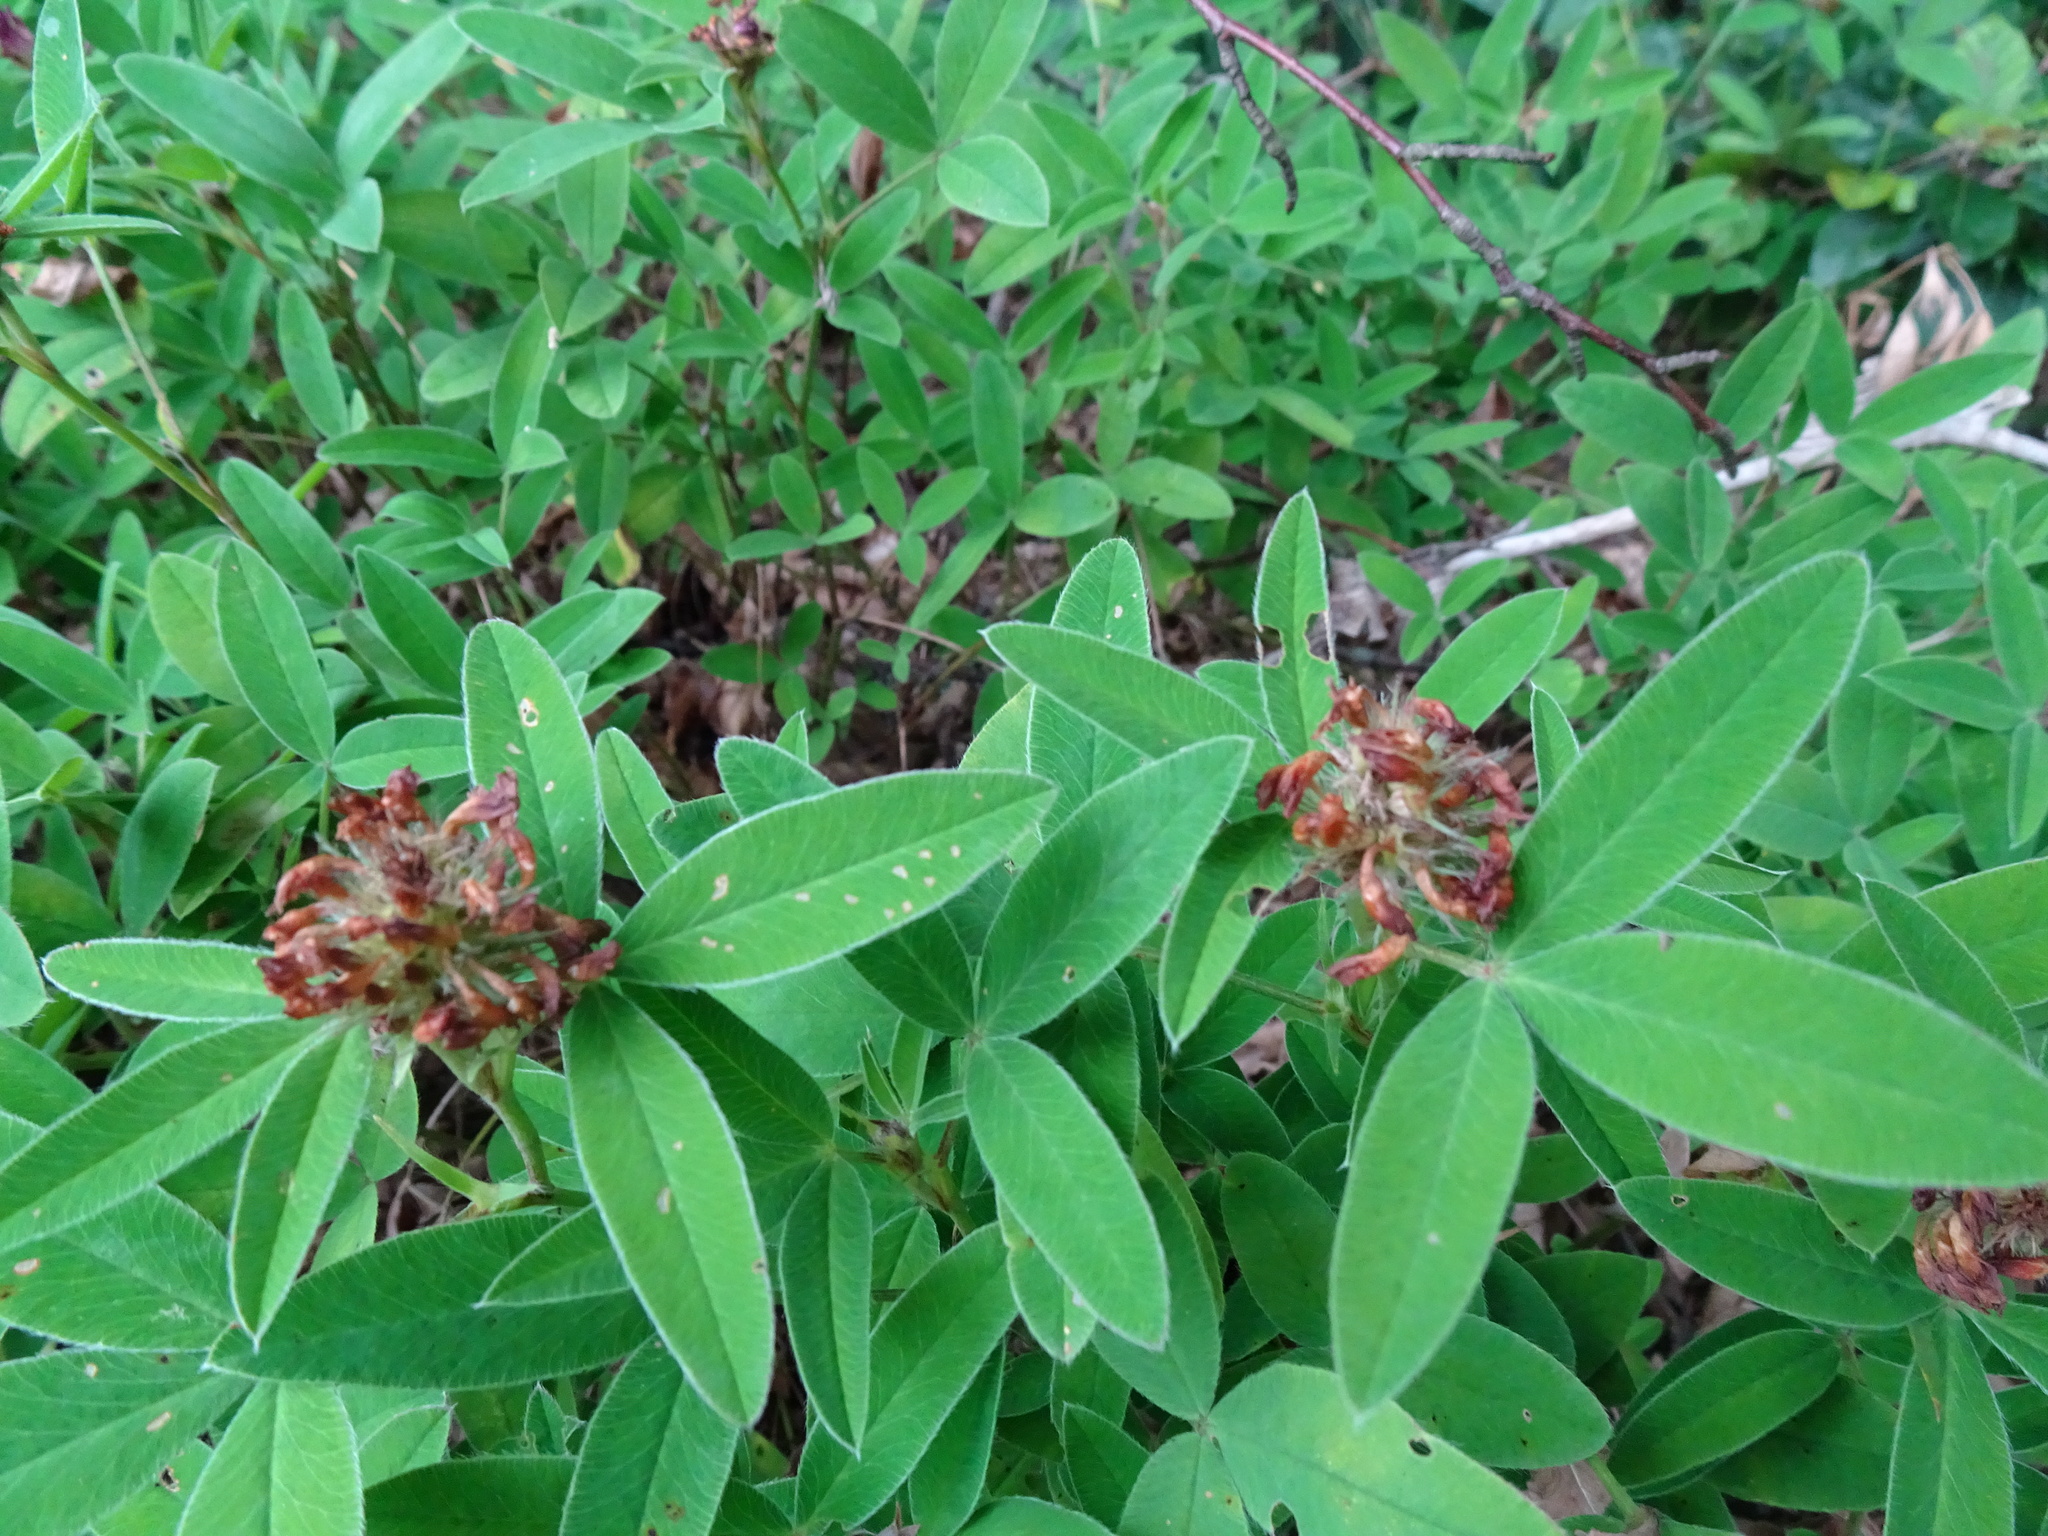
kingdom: Plantae
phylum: Tracheophyta
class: Magnoliopsida
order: Fabales
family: Fabaceae
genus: Trifolium
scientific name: Trifolium medium
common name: Zigzag clover
